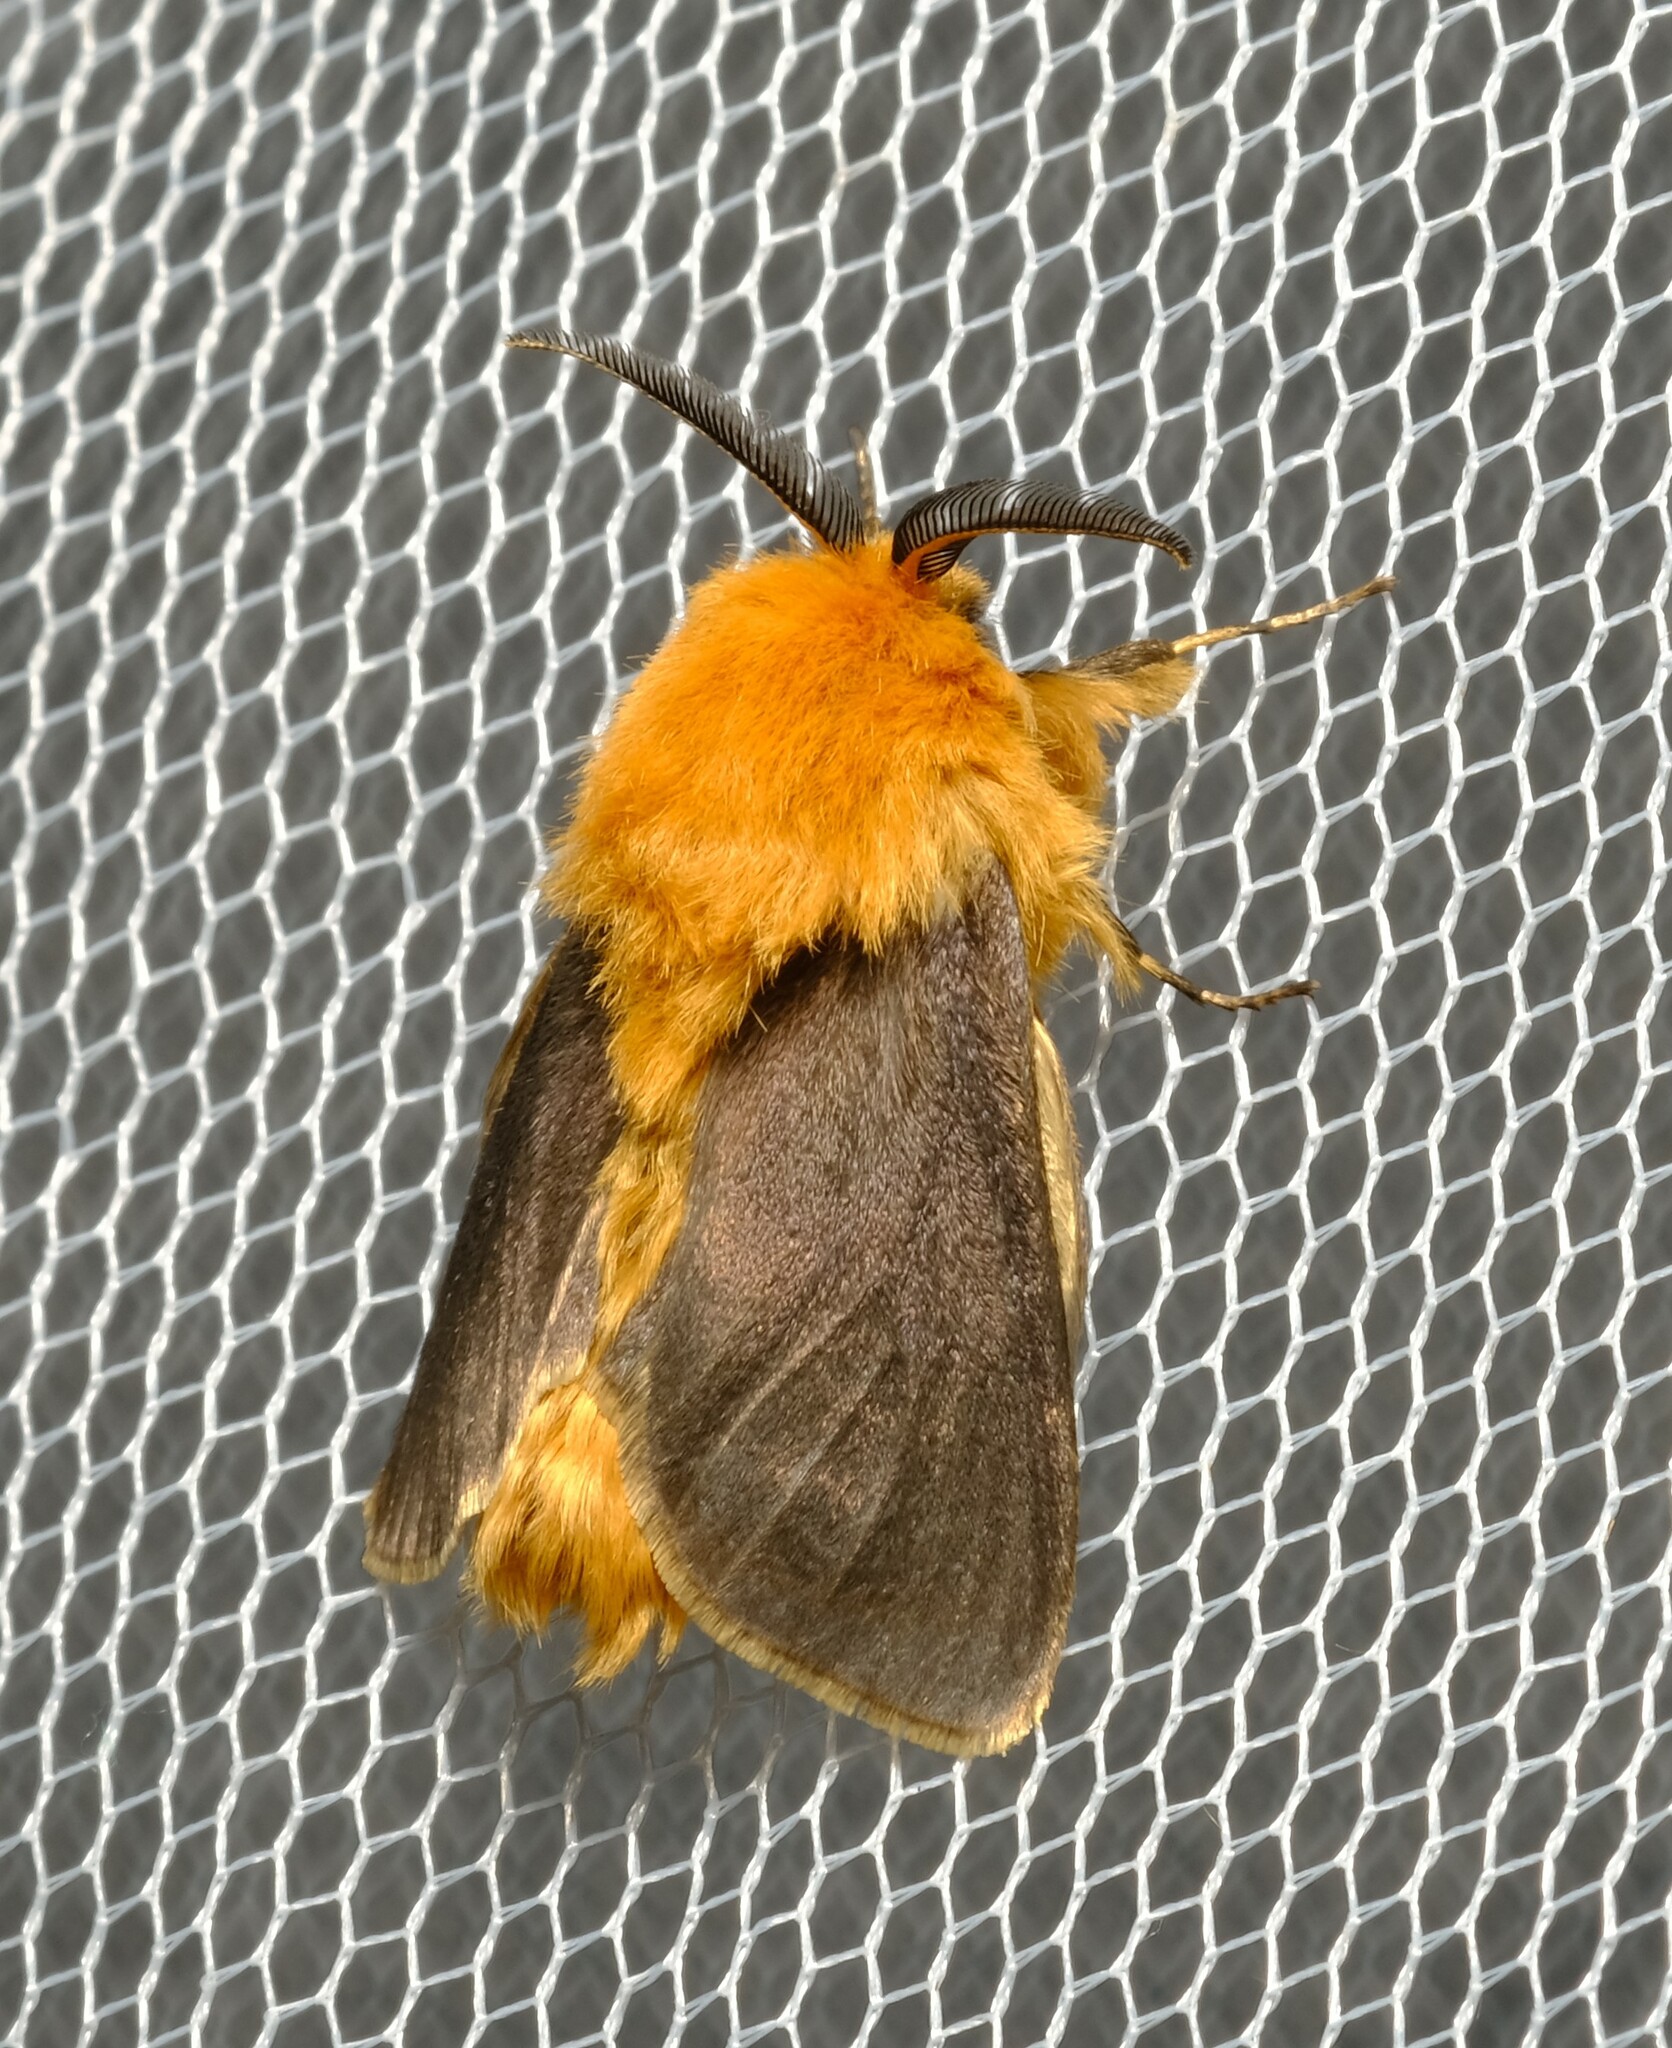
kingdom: Animalia
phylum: Arthropoda
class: Insecta
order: Lepidoptera
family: Psychidae
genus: Lomera
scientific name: Lomera
